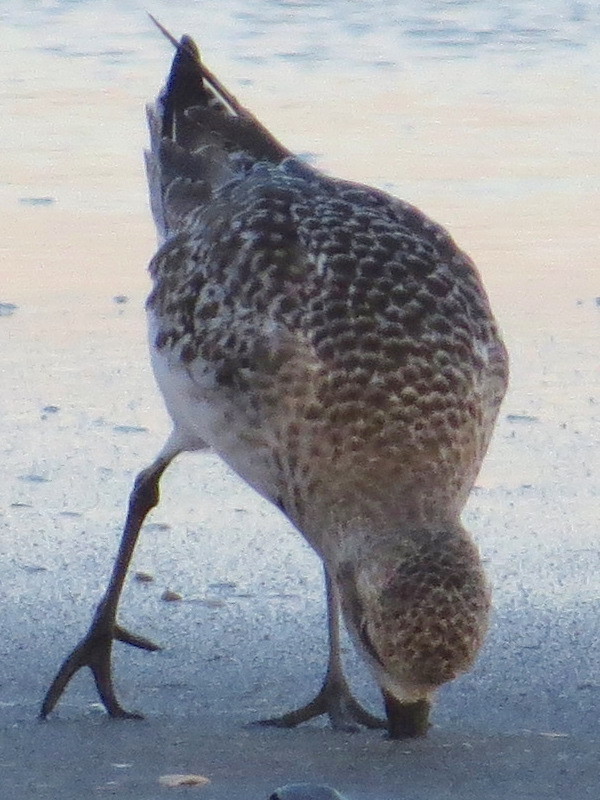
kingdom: Animalia
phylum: Chordata
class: Aves
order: Charadriiformes
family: Charadriidae
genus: Pluvialis
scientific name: Pluvialis squatarola
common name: Grey plover
